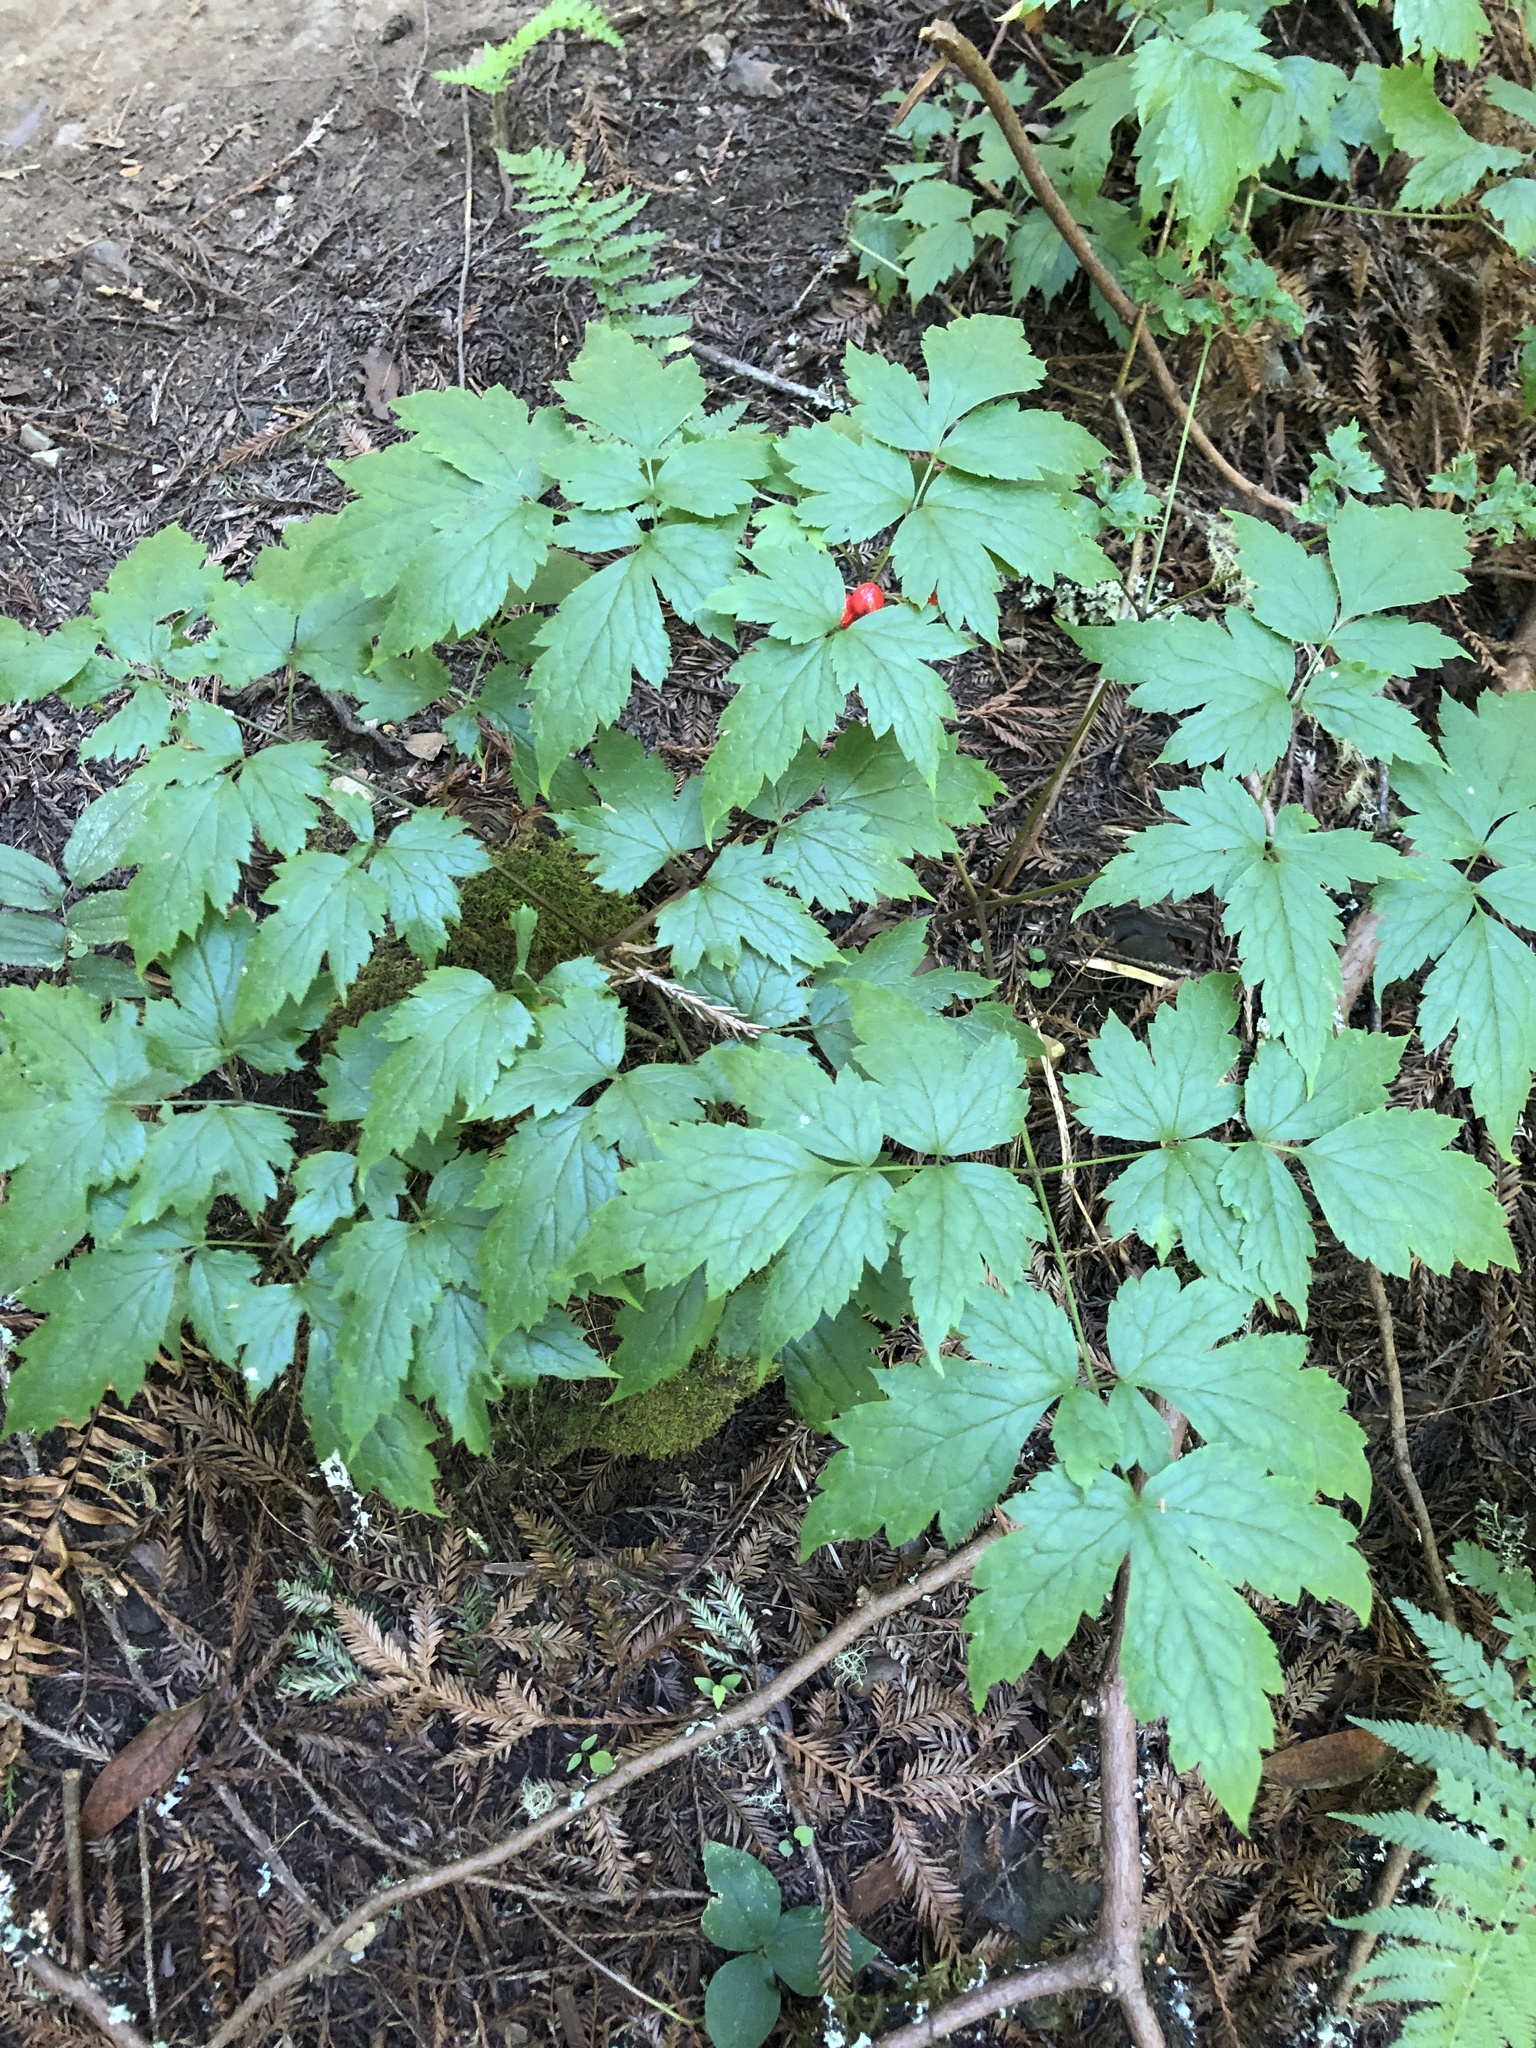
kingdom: Plantae
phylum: Tracheophyta
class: Magnoliopsida
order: Ranunculales
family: Ranunculaceae
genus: Actaea
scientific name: Actaea rubra
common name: Red baneberry
